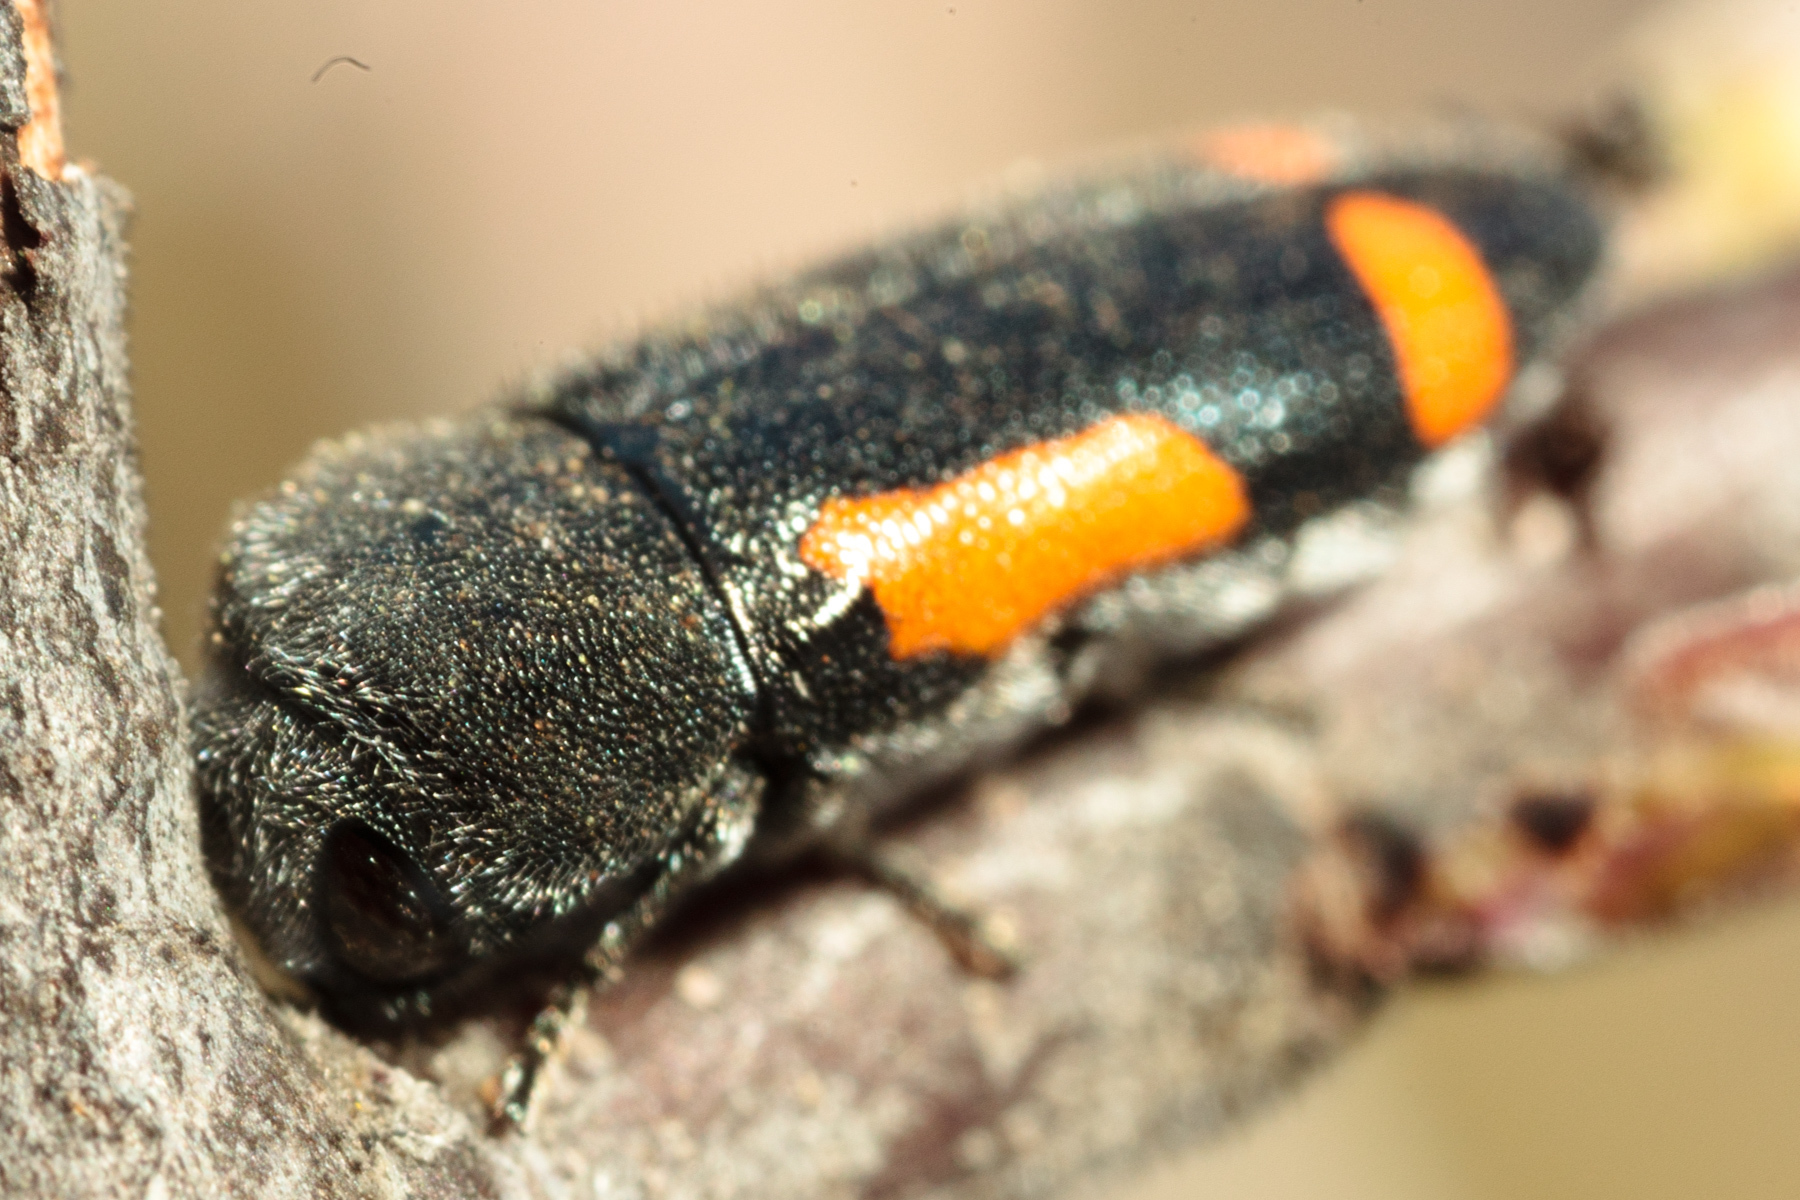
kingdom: Animalia
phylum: Arthropoda
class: Insecta
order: Coleoptera
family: Buprestidae
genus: Ptosima
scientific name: Ptosima laeta
